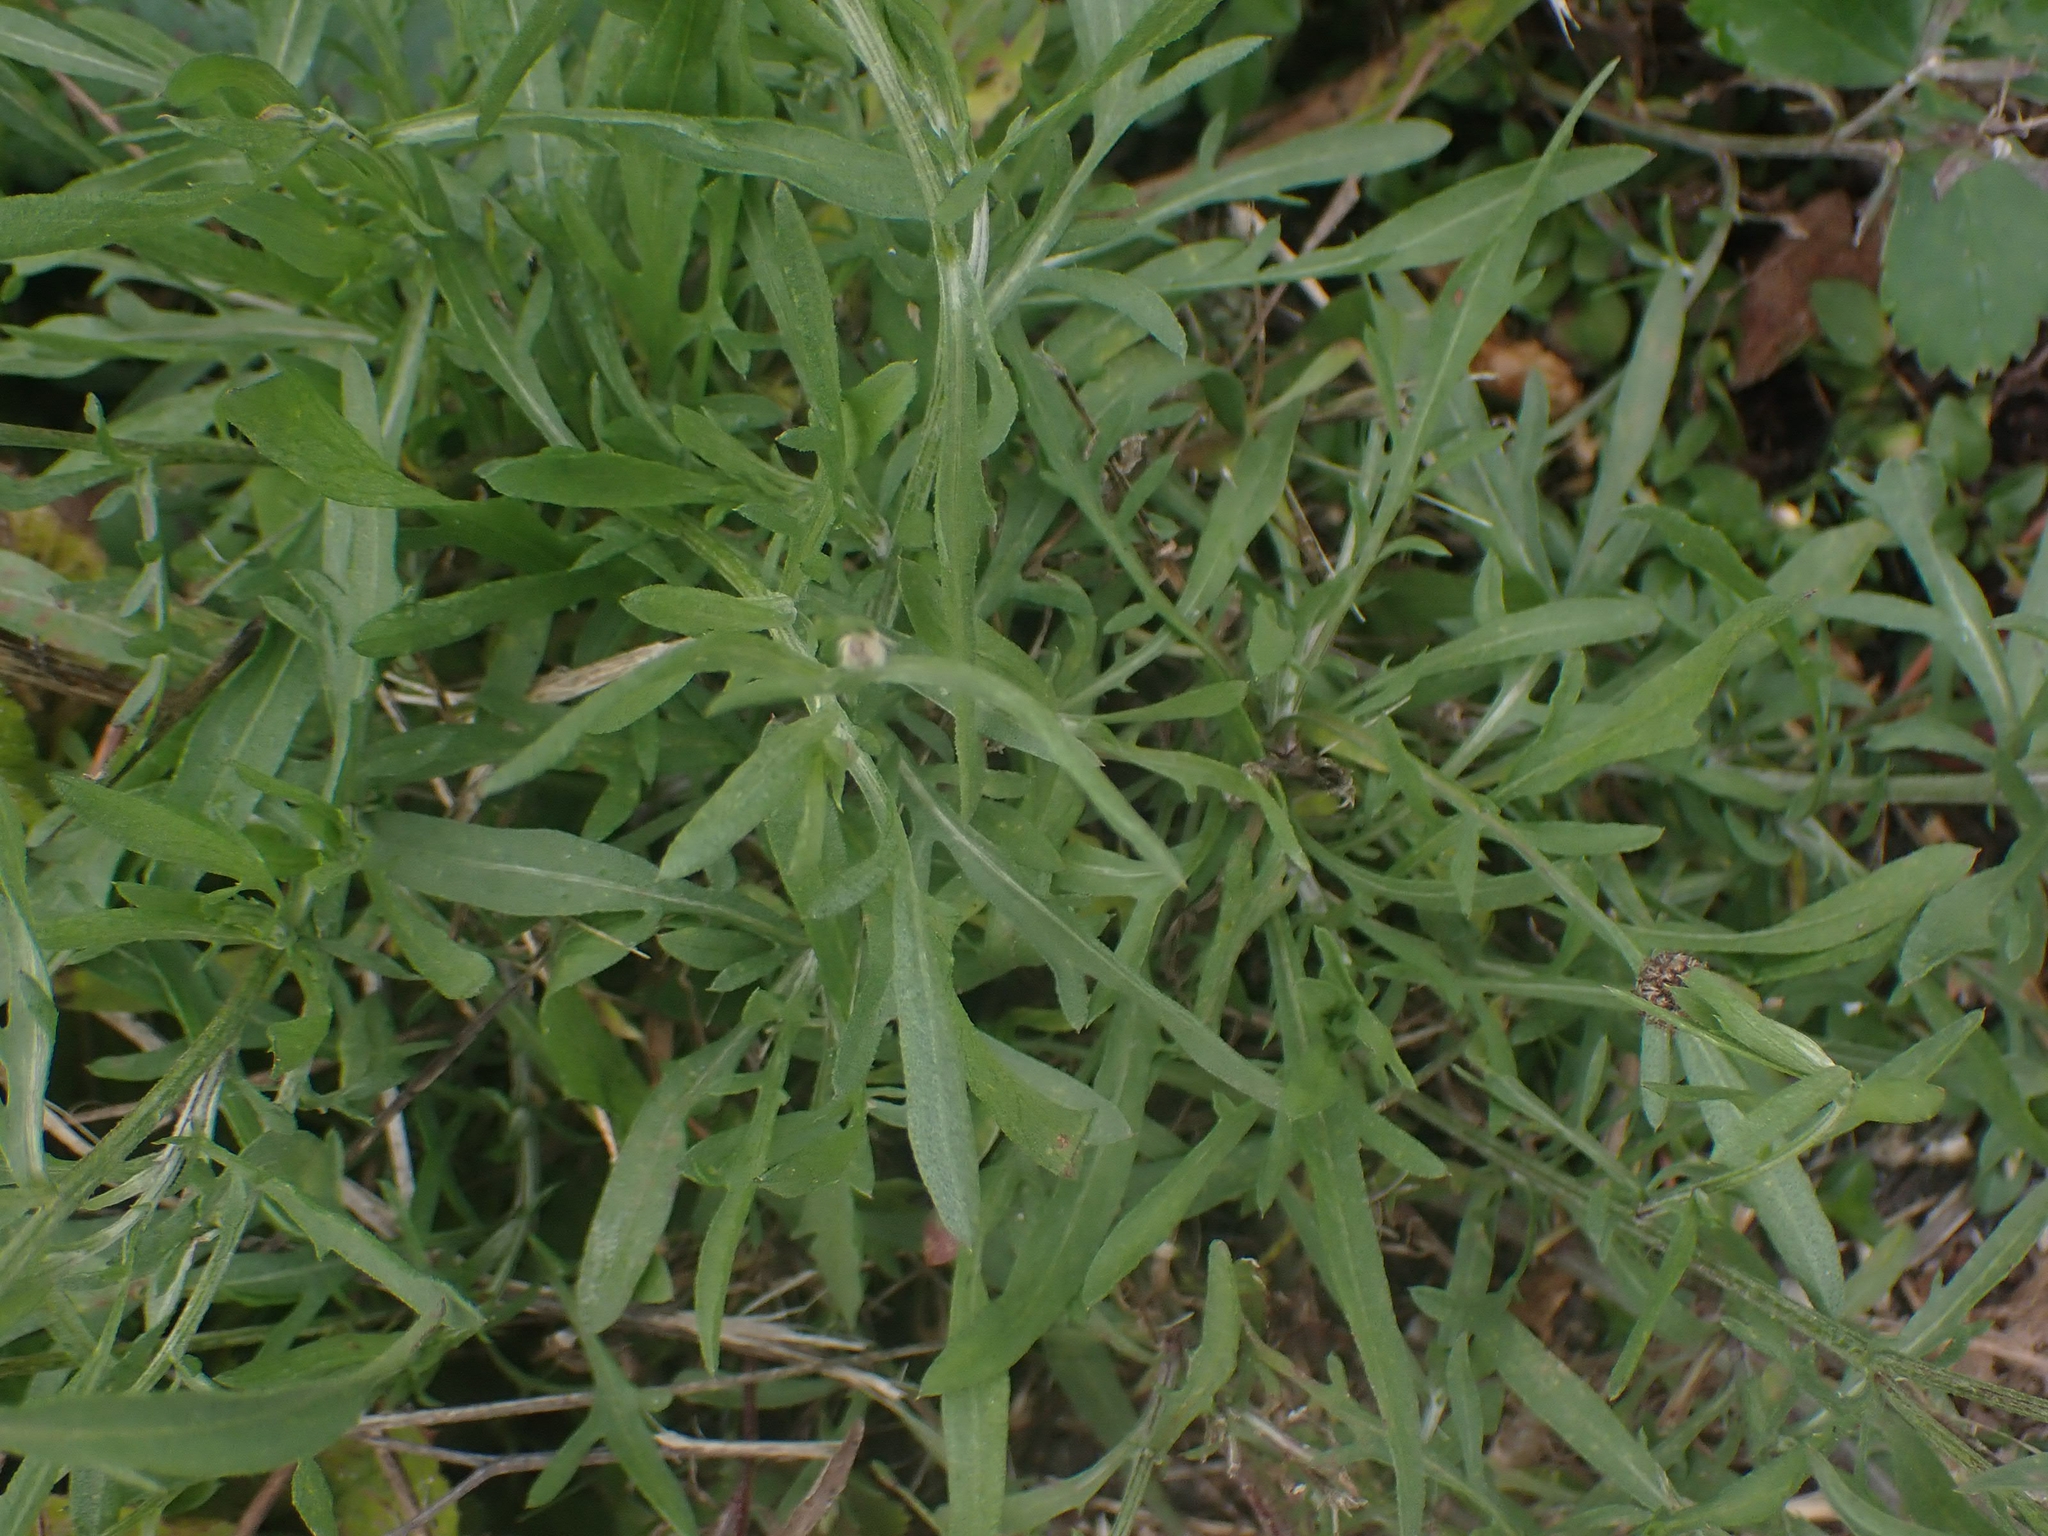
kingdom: Plantae
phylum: Tracheophyta
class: Magnoliopsida
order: Asterales
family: Asteraceae
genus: Centaurea
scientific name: Centaurea stoebe
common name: Spotted knapweed
